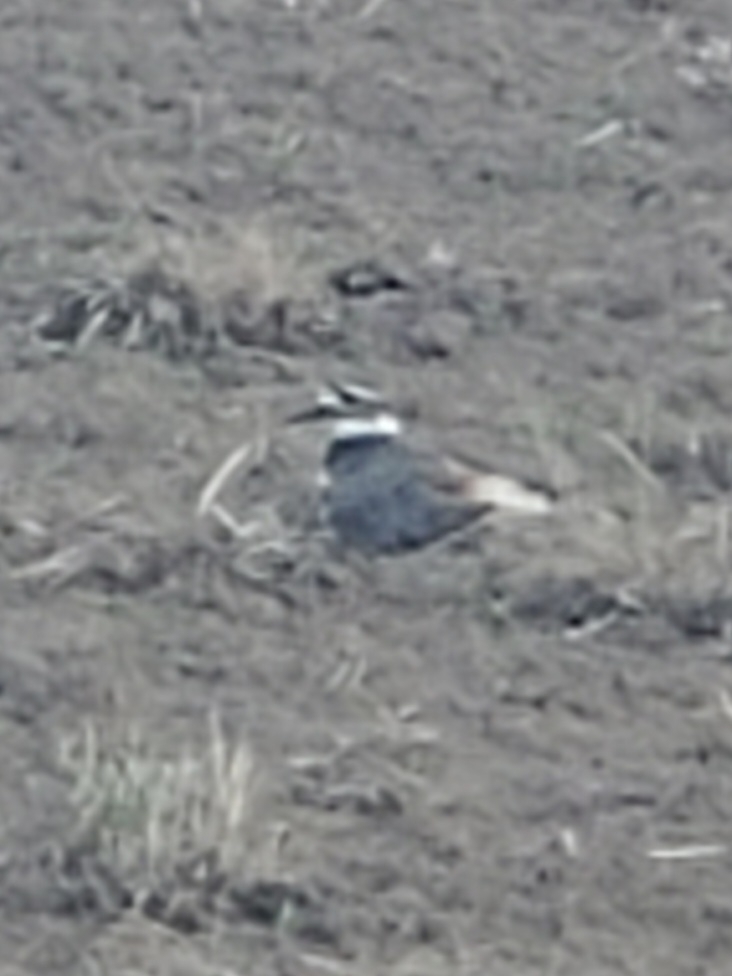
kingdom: Animalia
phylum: Chordata
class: Aves
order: Charadriiformes
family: Charadriidae
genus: Charadrius
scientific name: Charadrius vociferus
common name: Killdeer
